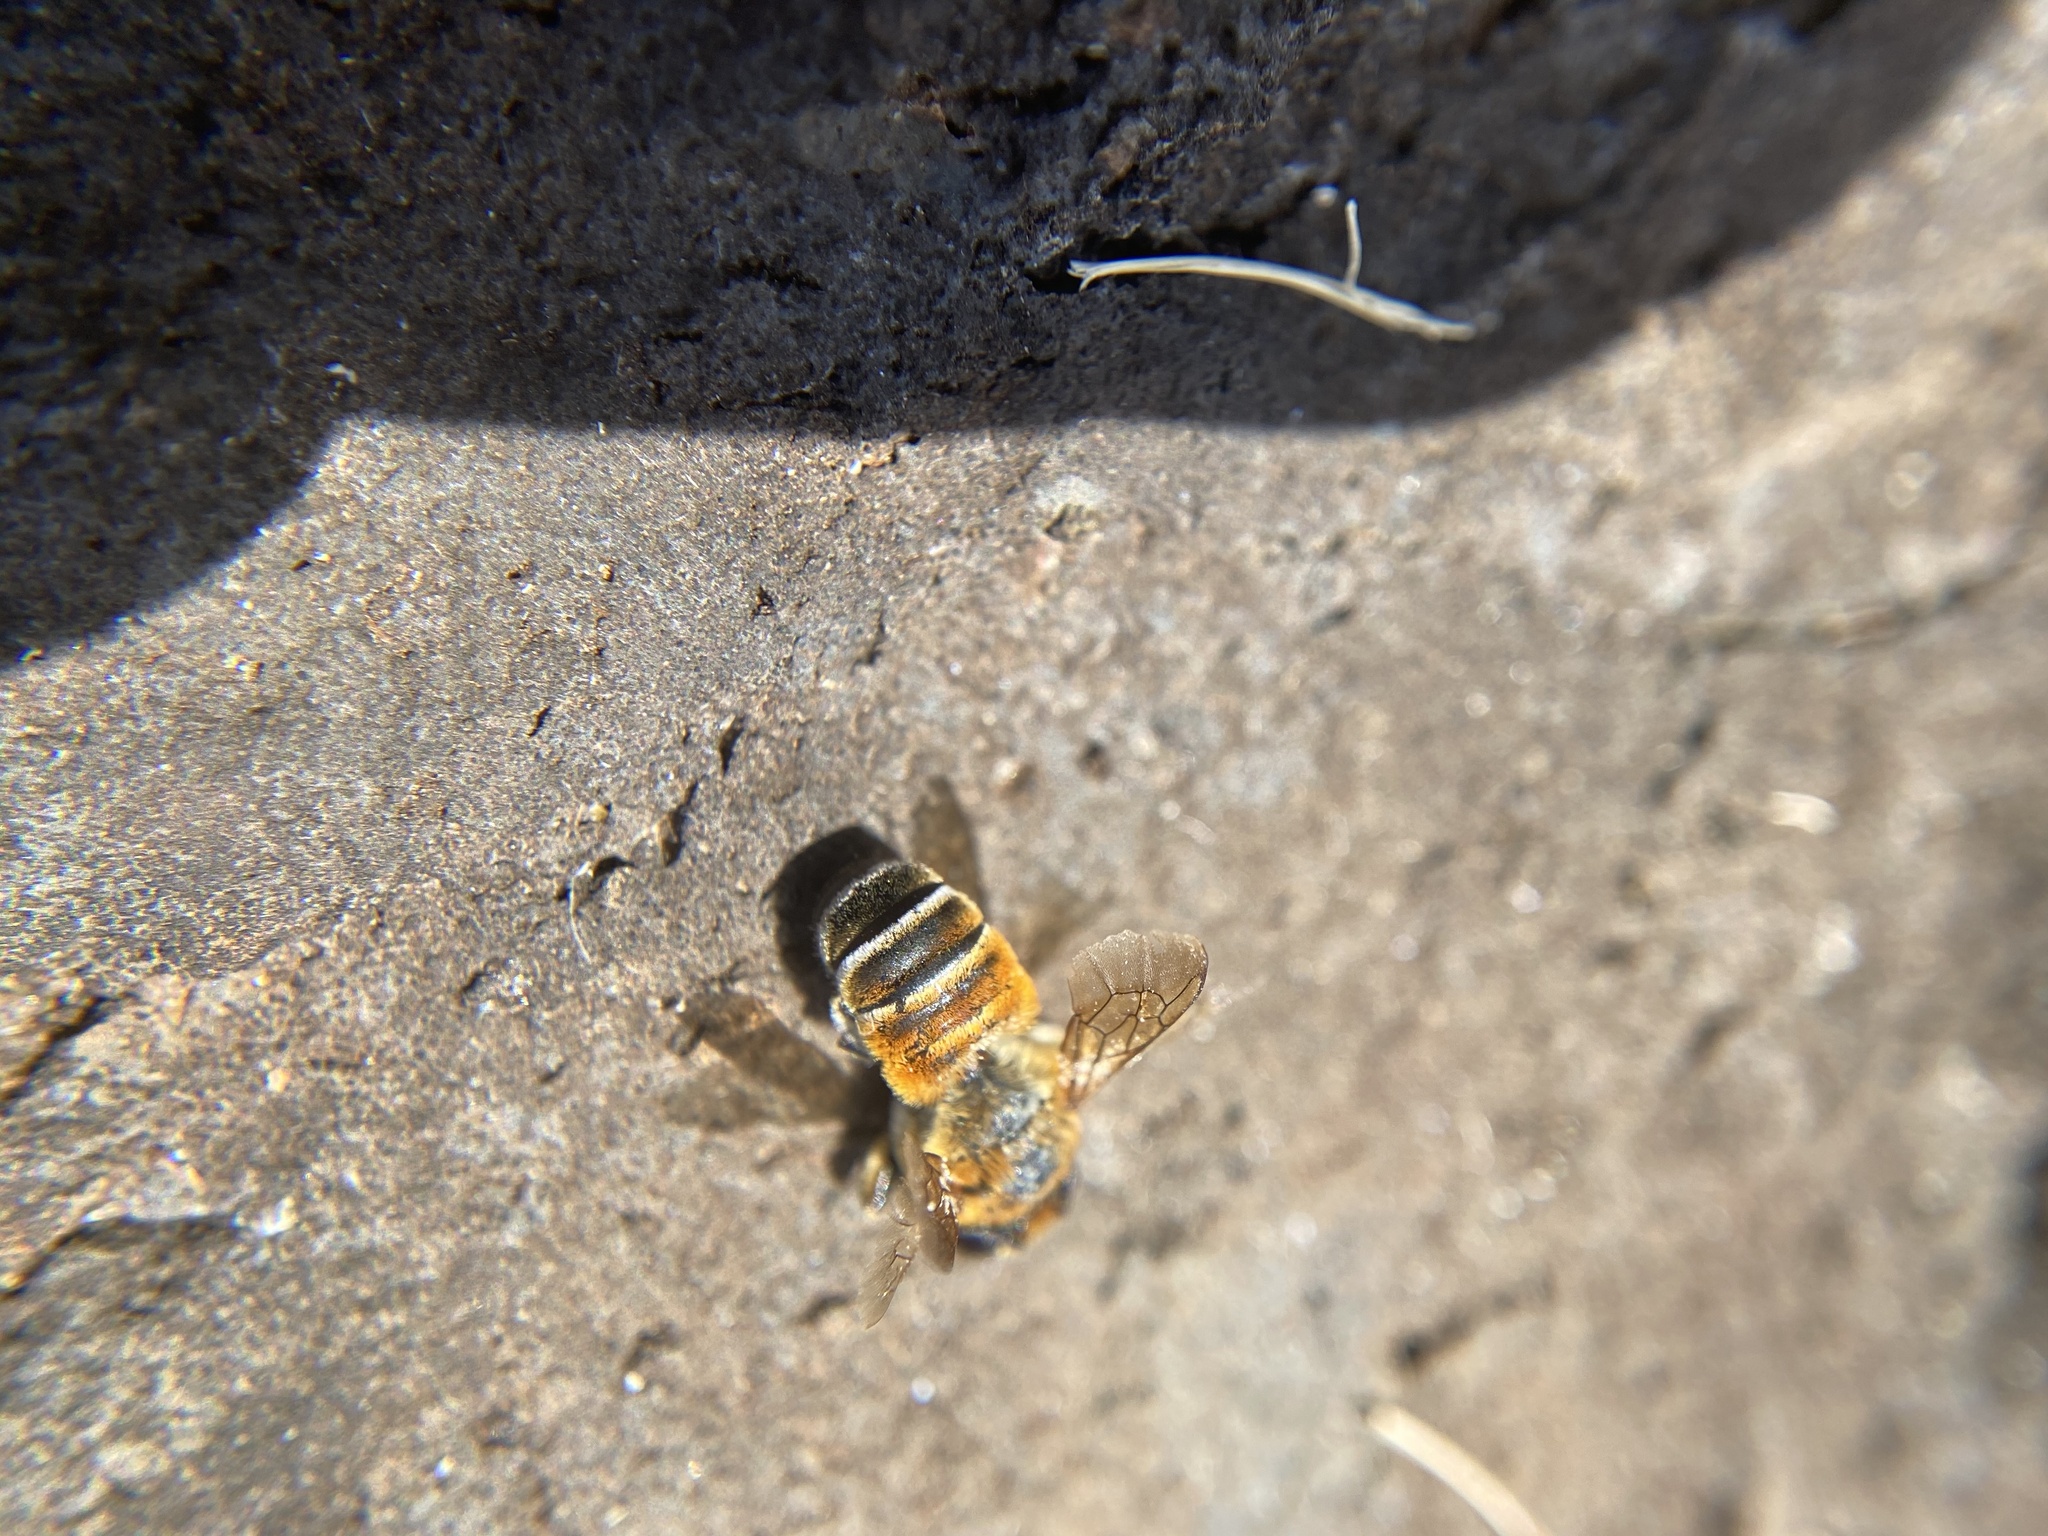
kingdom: Animalia
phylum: Arthropoda
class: Insecta
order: Hymenoptera
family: Megachilidae
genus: Megachile
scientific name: Megachile lanata
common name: Wooly wall bee
